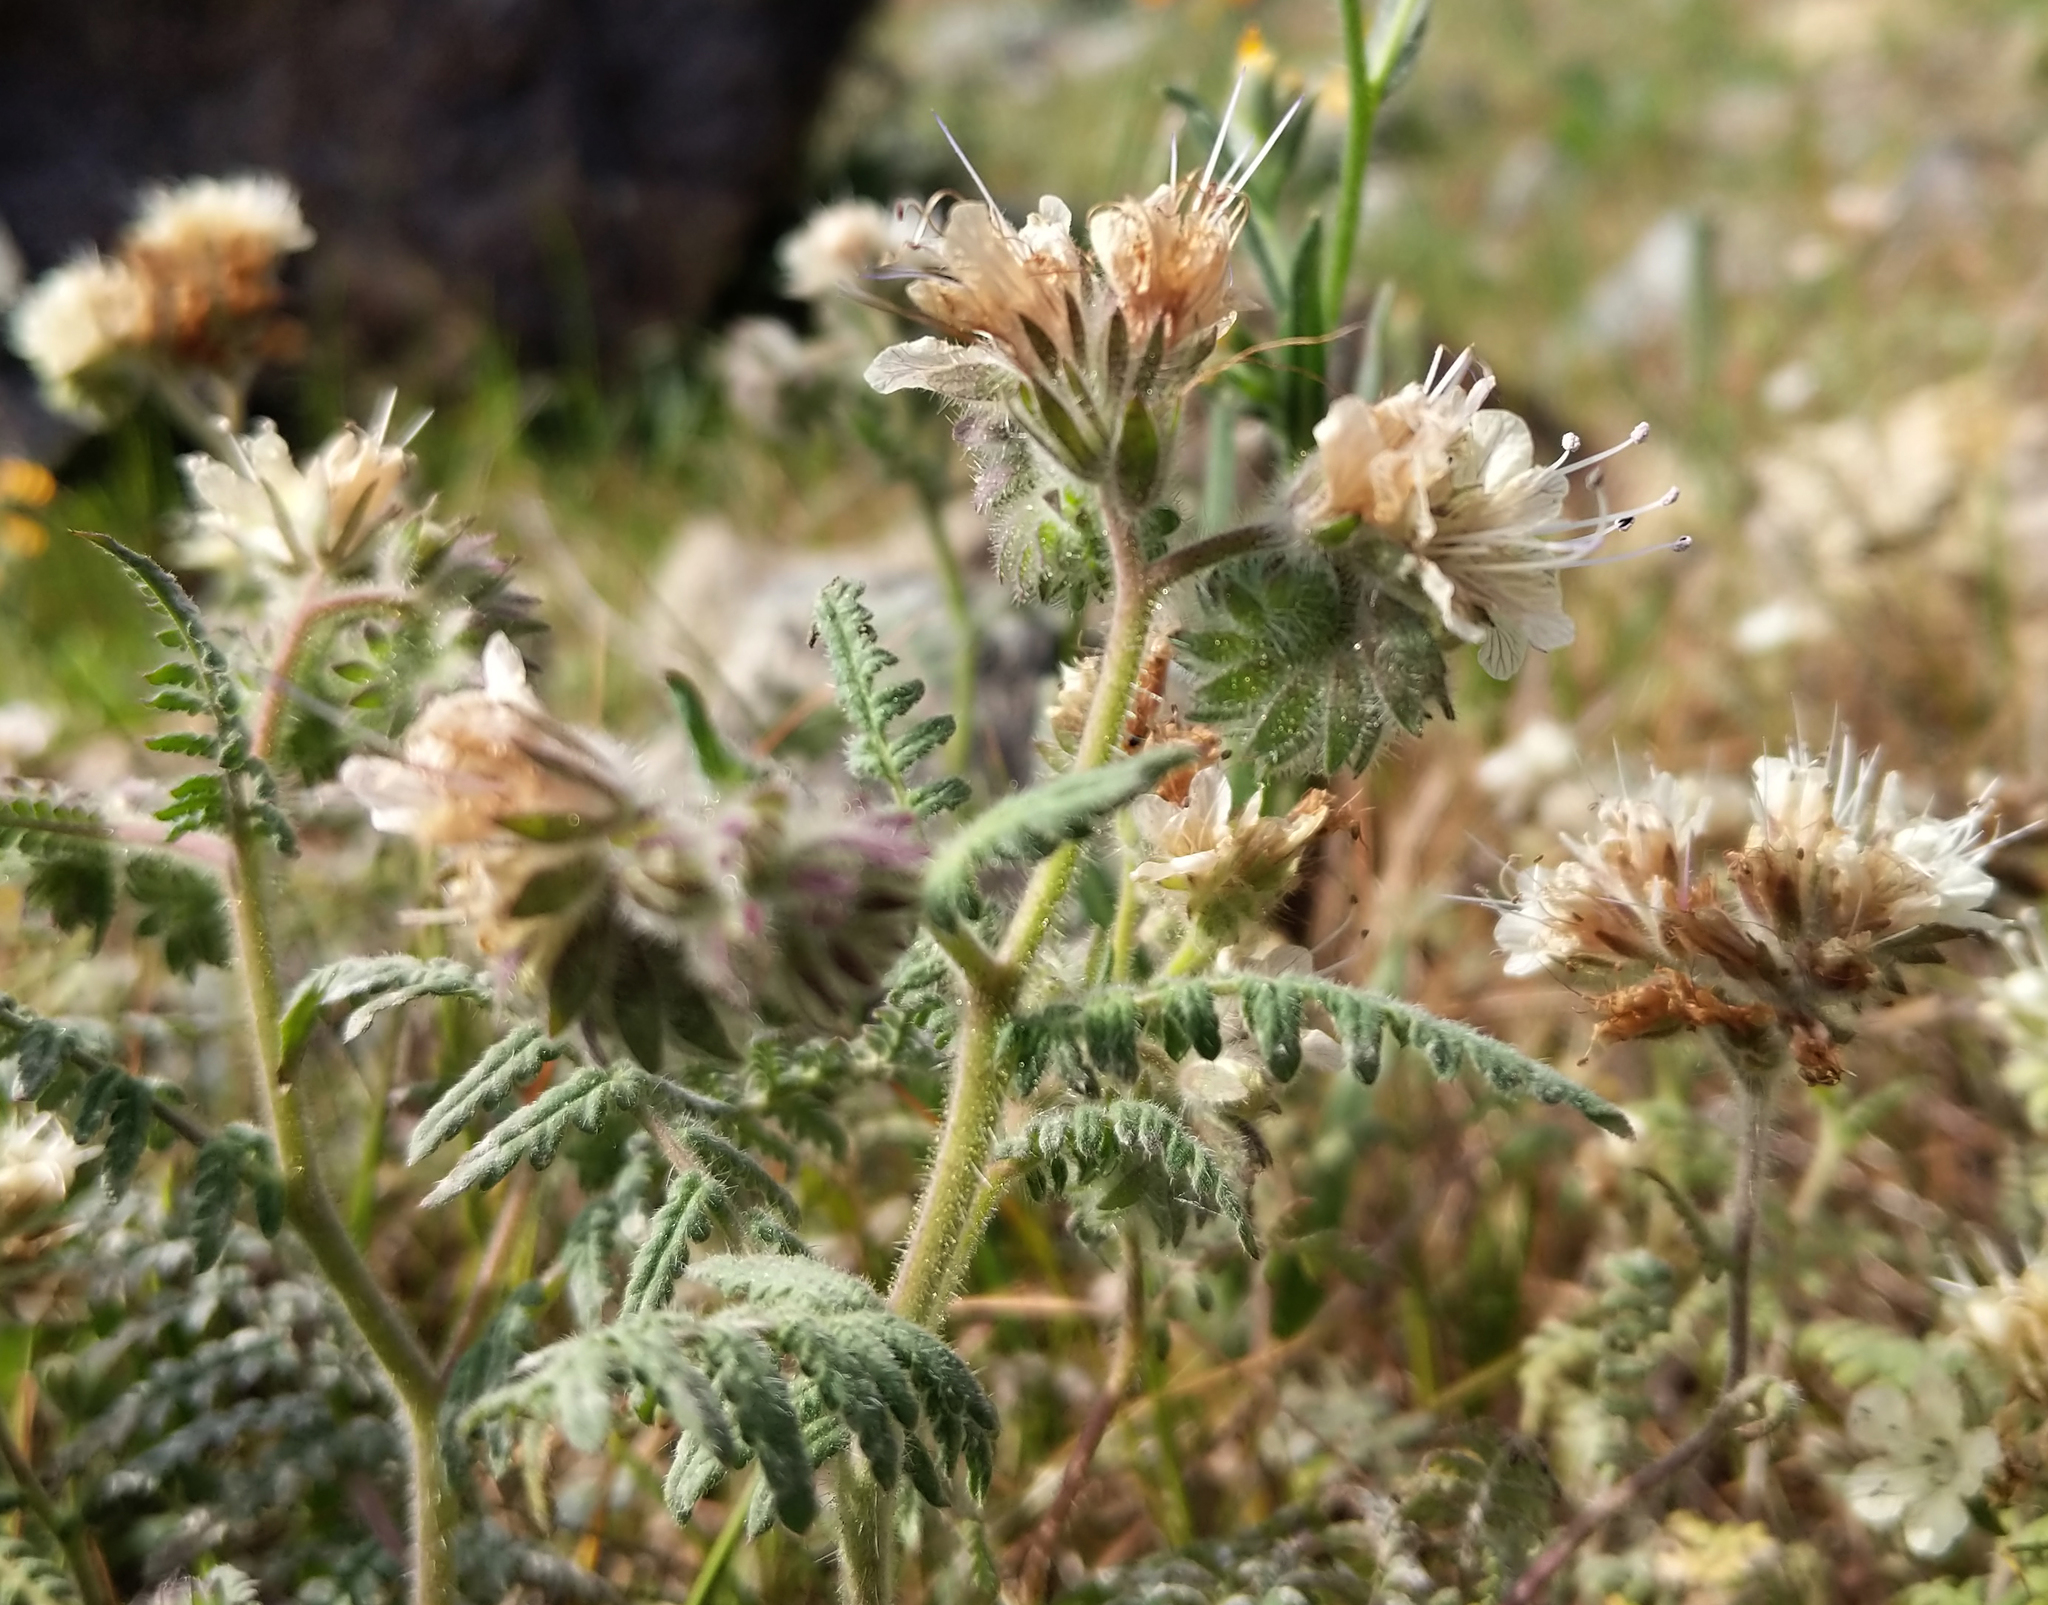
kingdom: Plantae
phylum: Tracheophyta
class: Magnoliopsida
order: Boraginales
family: Hydrophyllaceae
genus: Phacelia
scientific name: Phacelia distans
